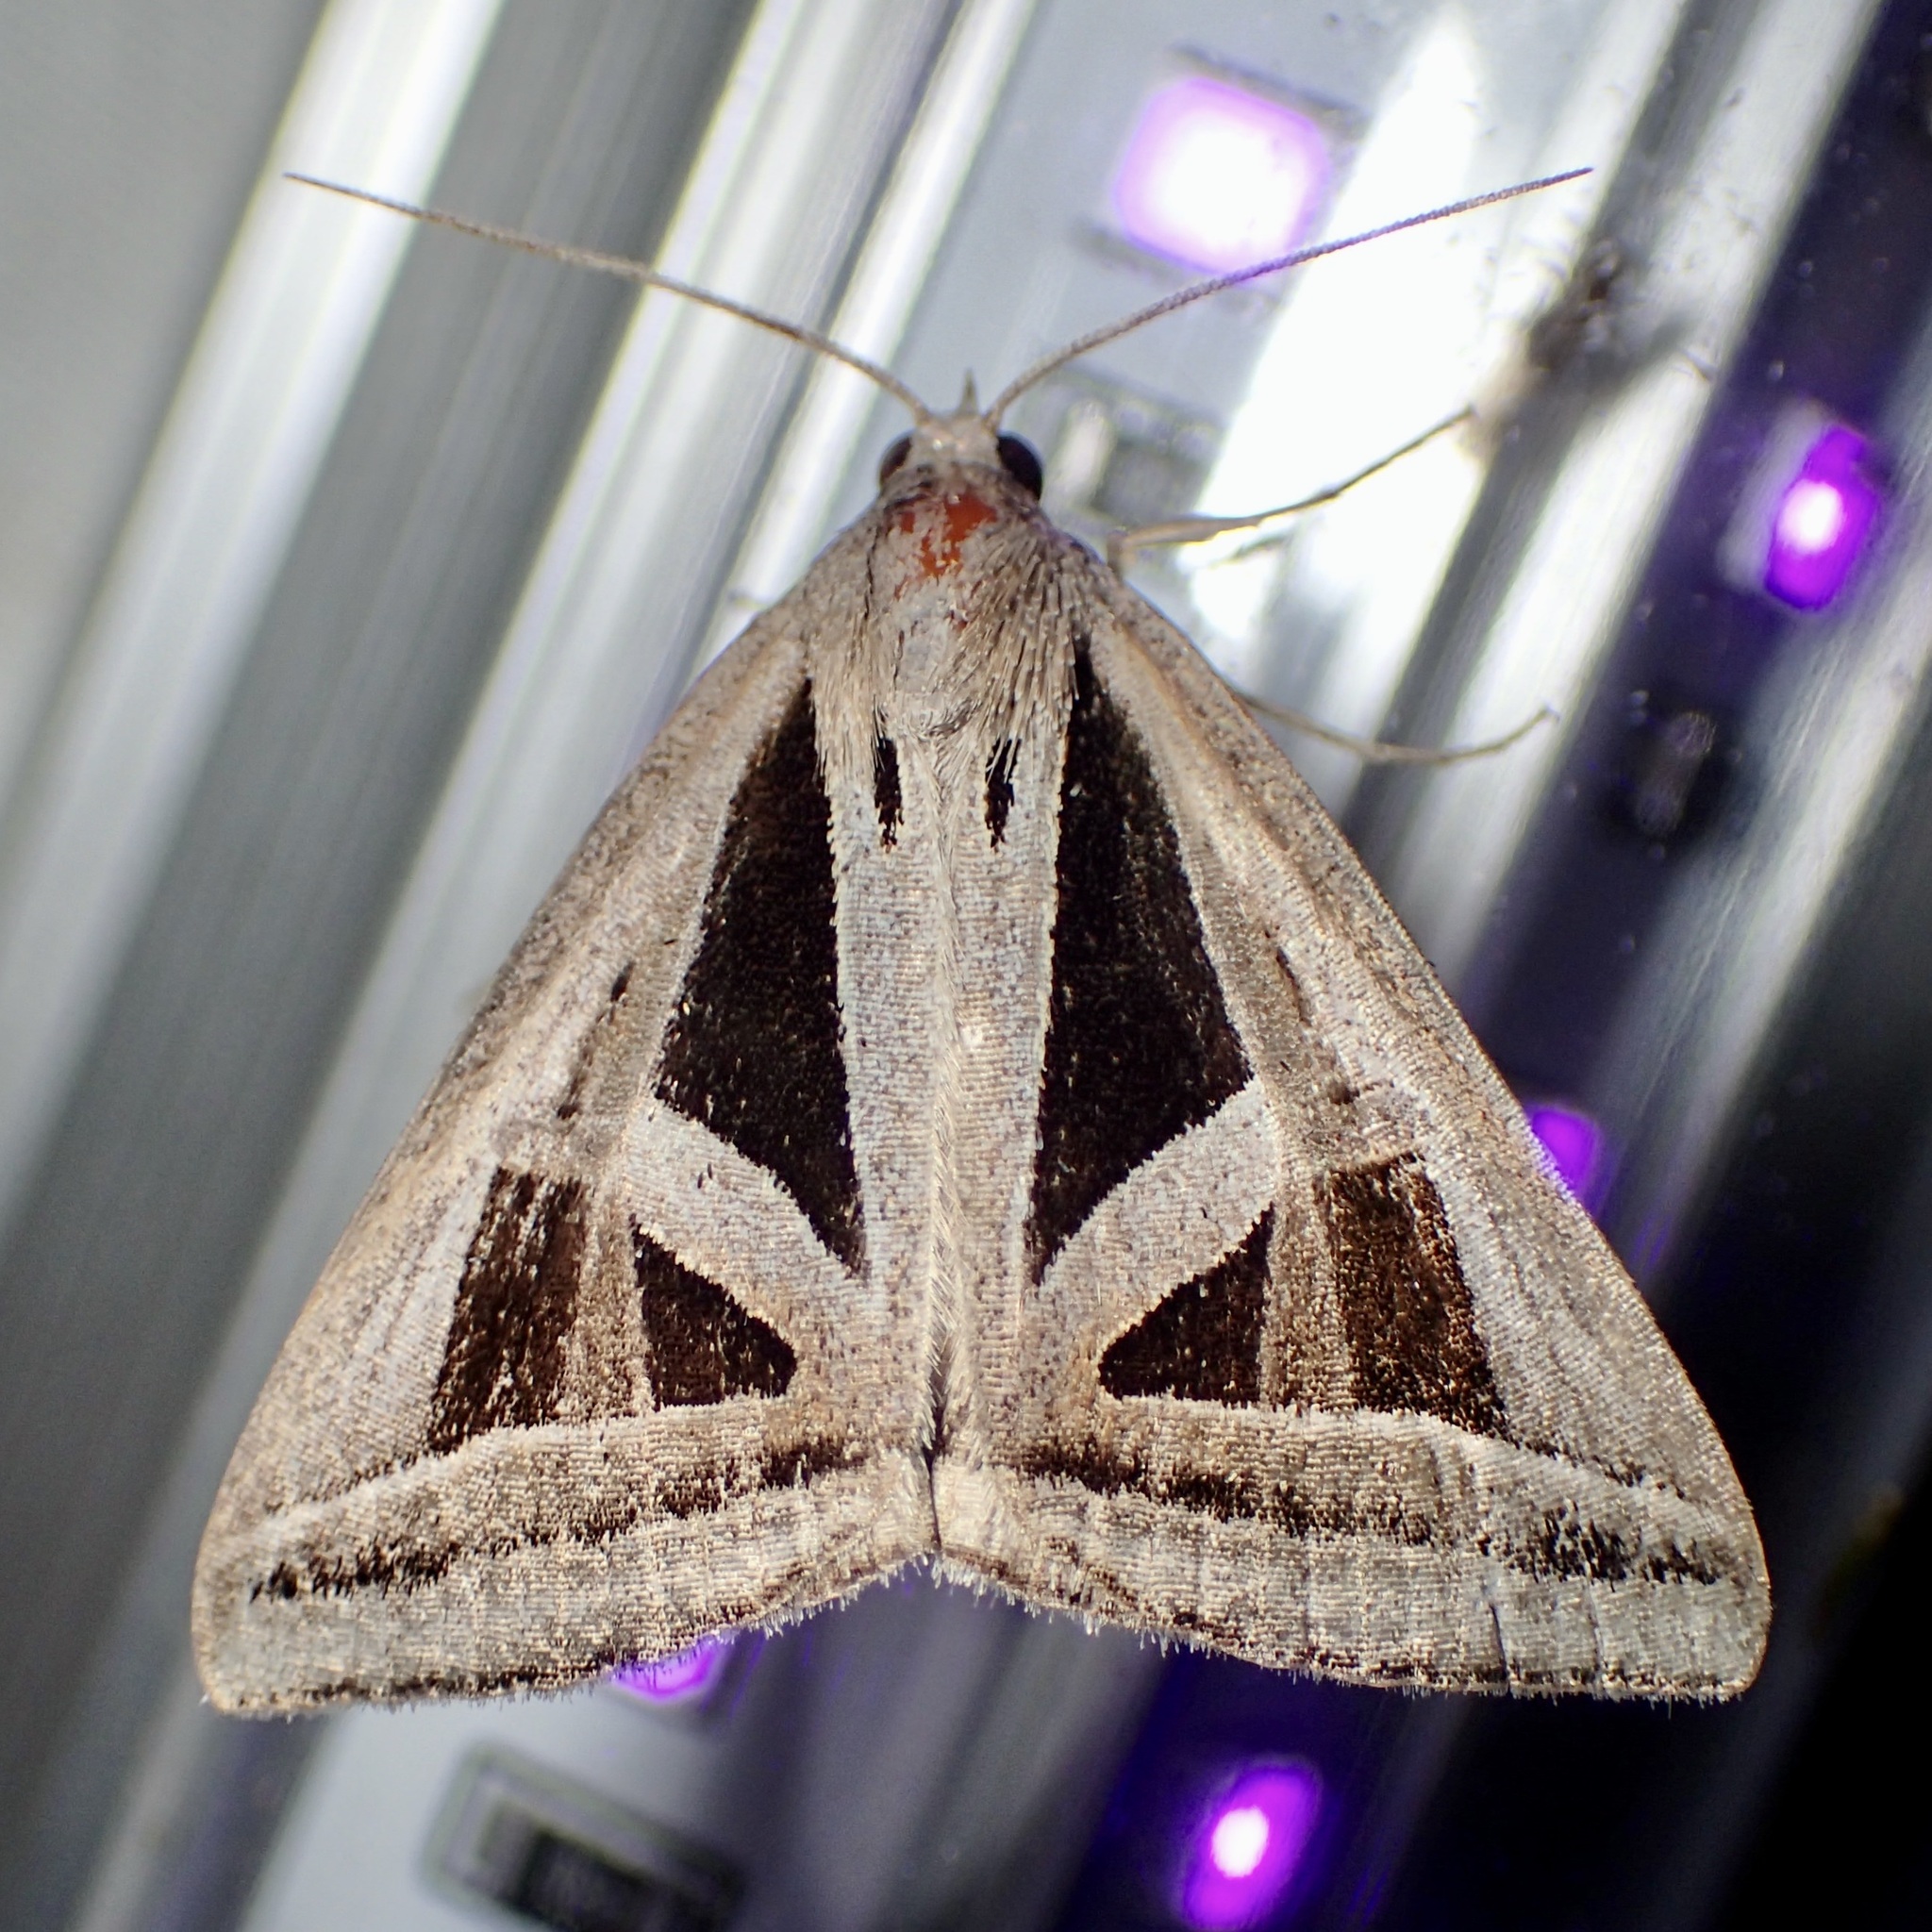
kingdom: Animalia
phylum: Arthropoda
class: Insecta
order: Lepidoptera
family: Erebidae
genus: Callistege
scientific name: Callistege triangula
